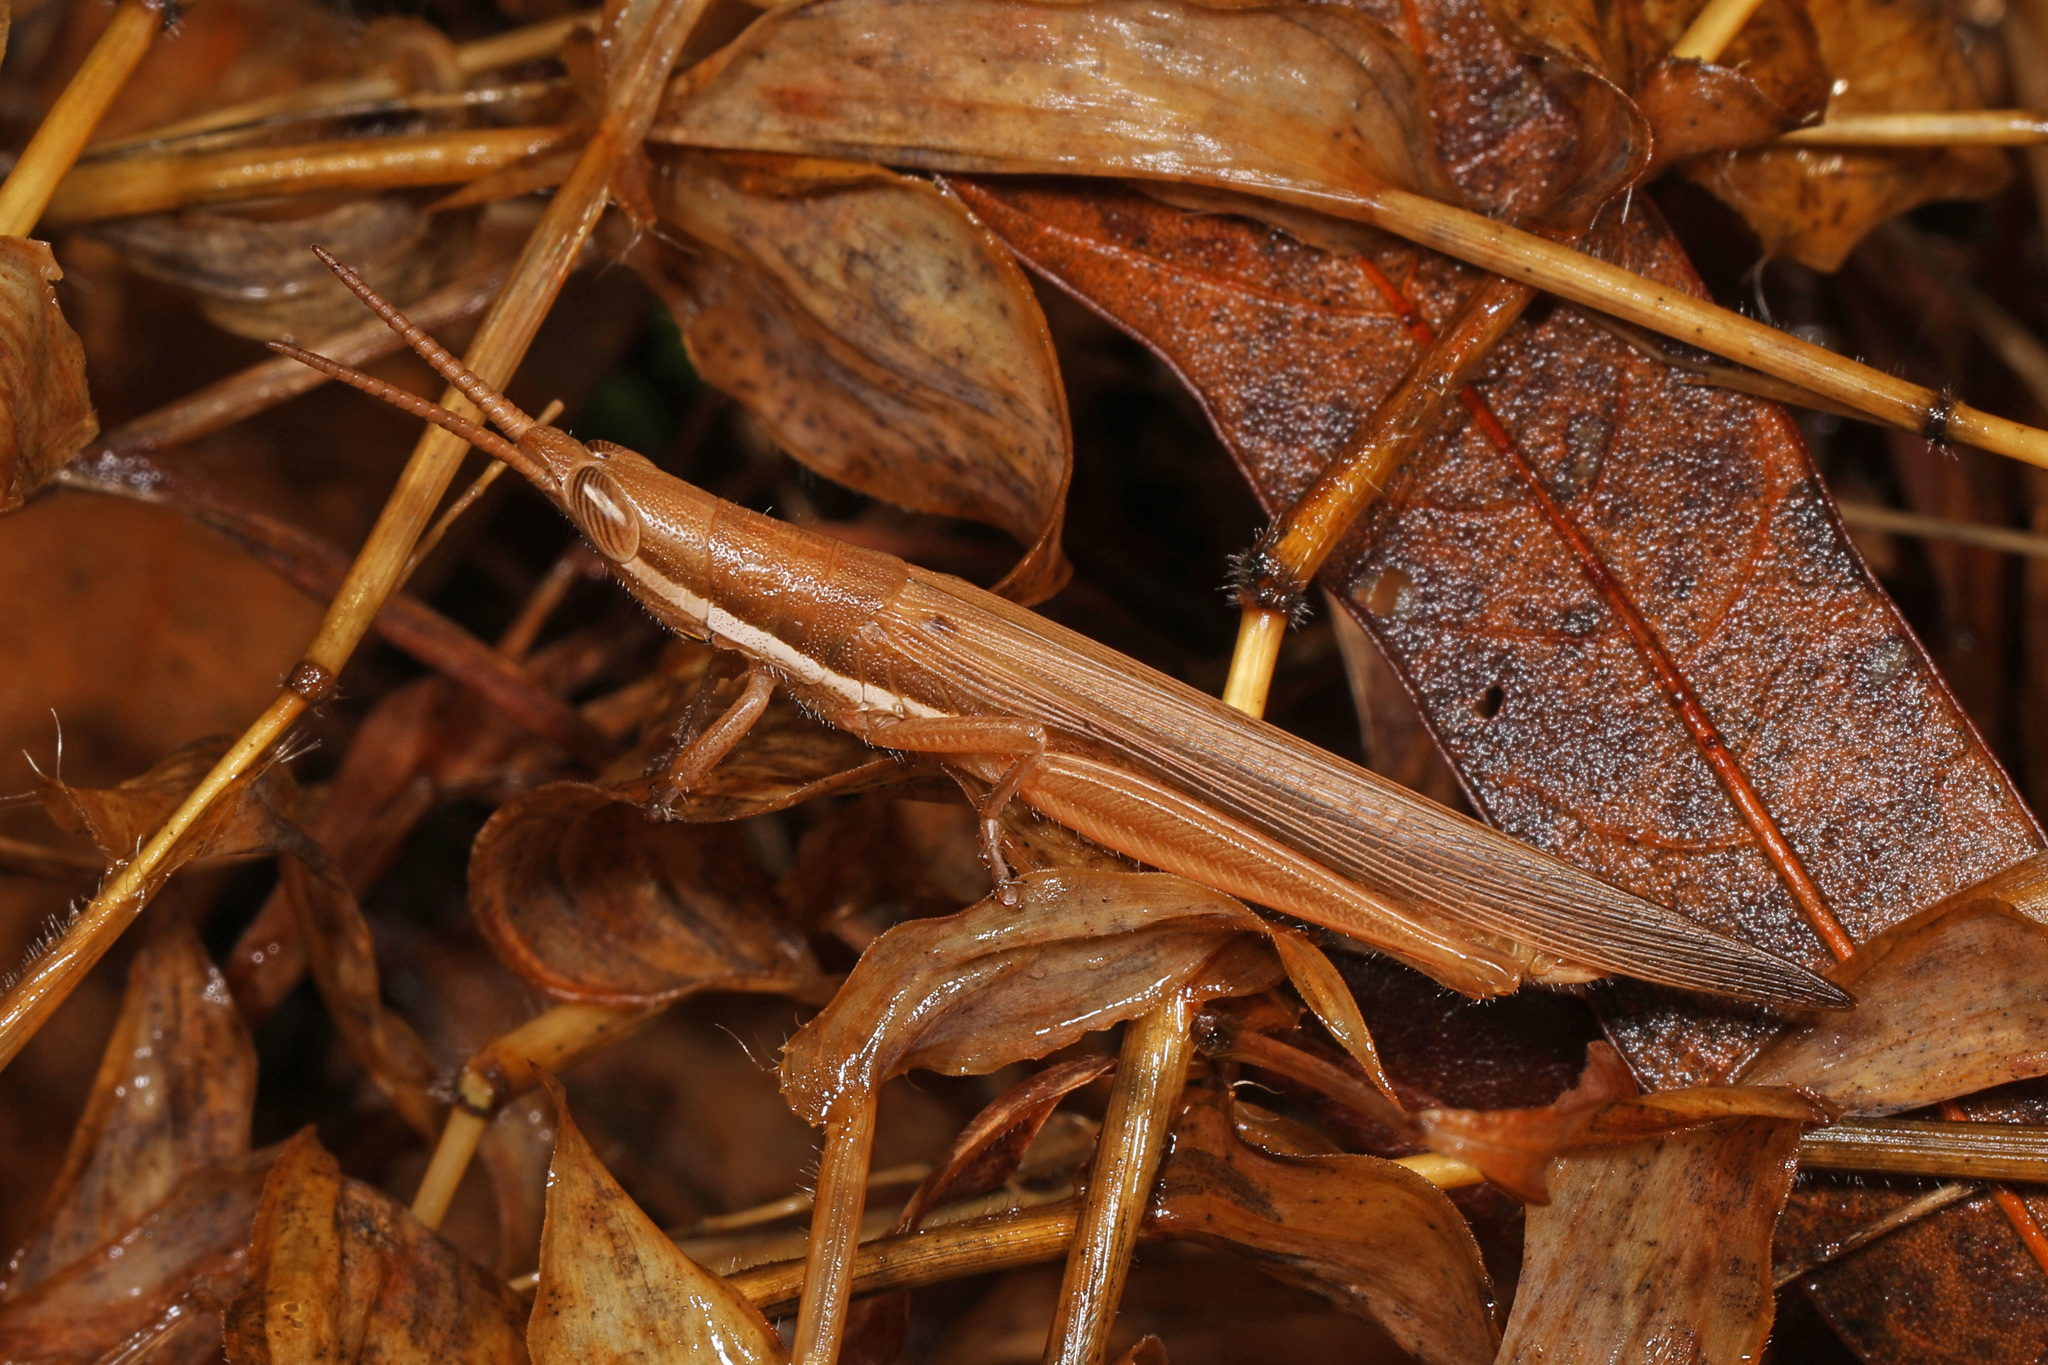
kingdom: Animalia
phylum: Arthropoda
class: Insecta
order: Orthoptera
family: Acrididae
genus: Leptysma
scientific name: Leptysma marginicollis
